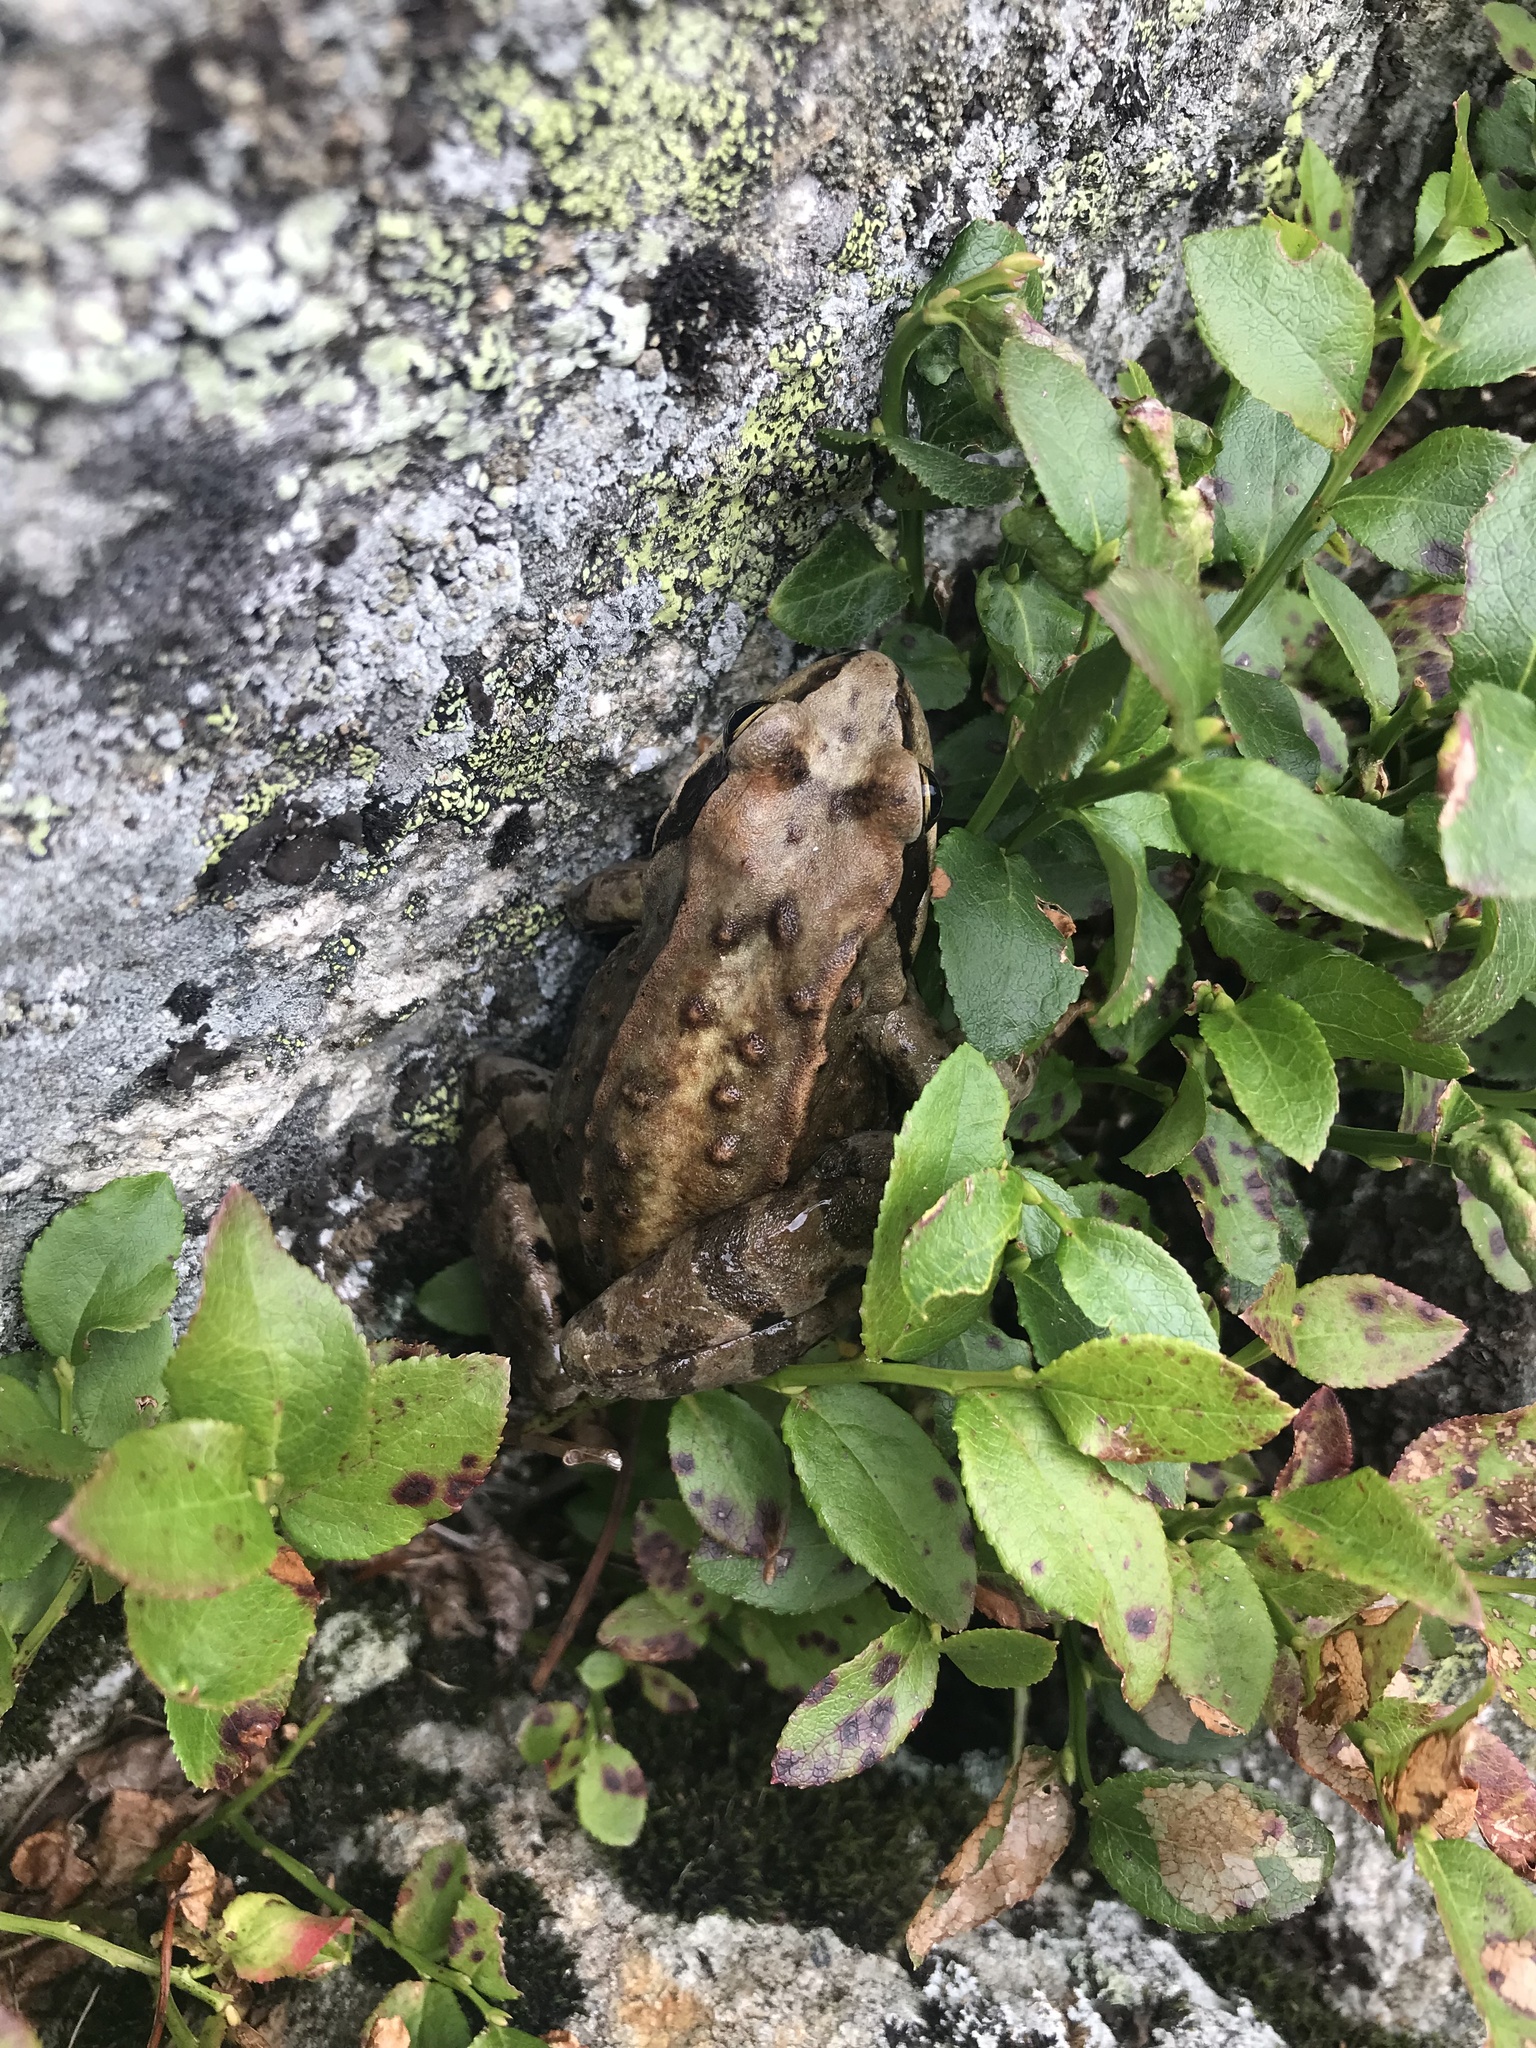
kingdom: Animalia
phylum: Chordata
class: Amphibia
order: Anura
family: Ranidae
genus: Rana
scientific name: Rana temporaria
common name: Common frog
